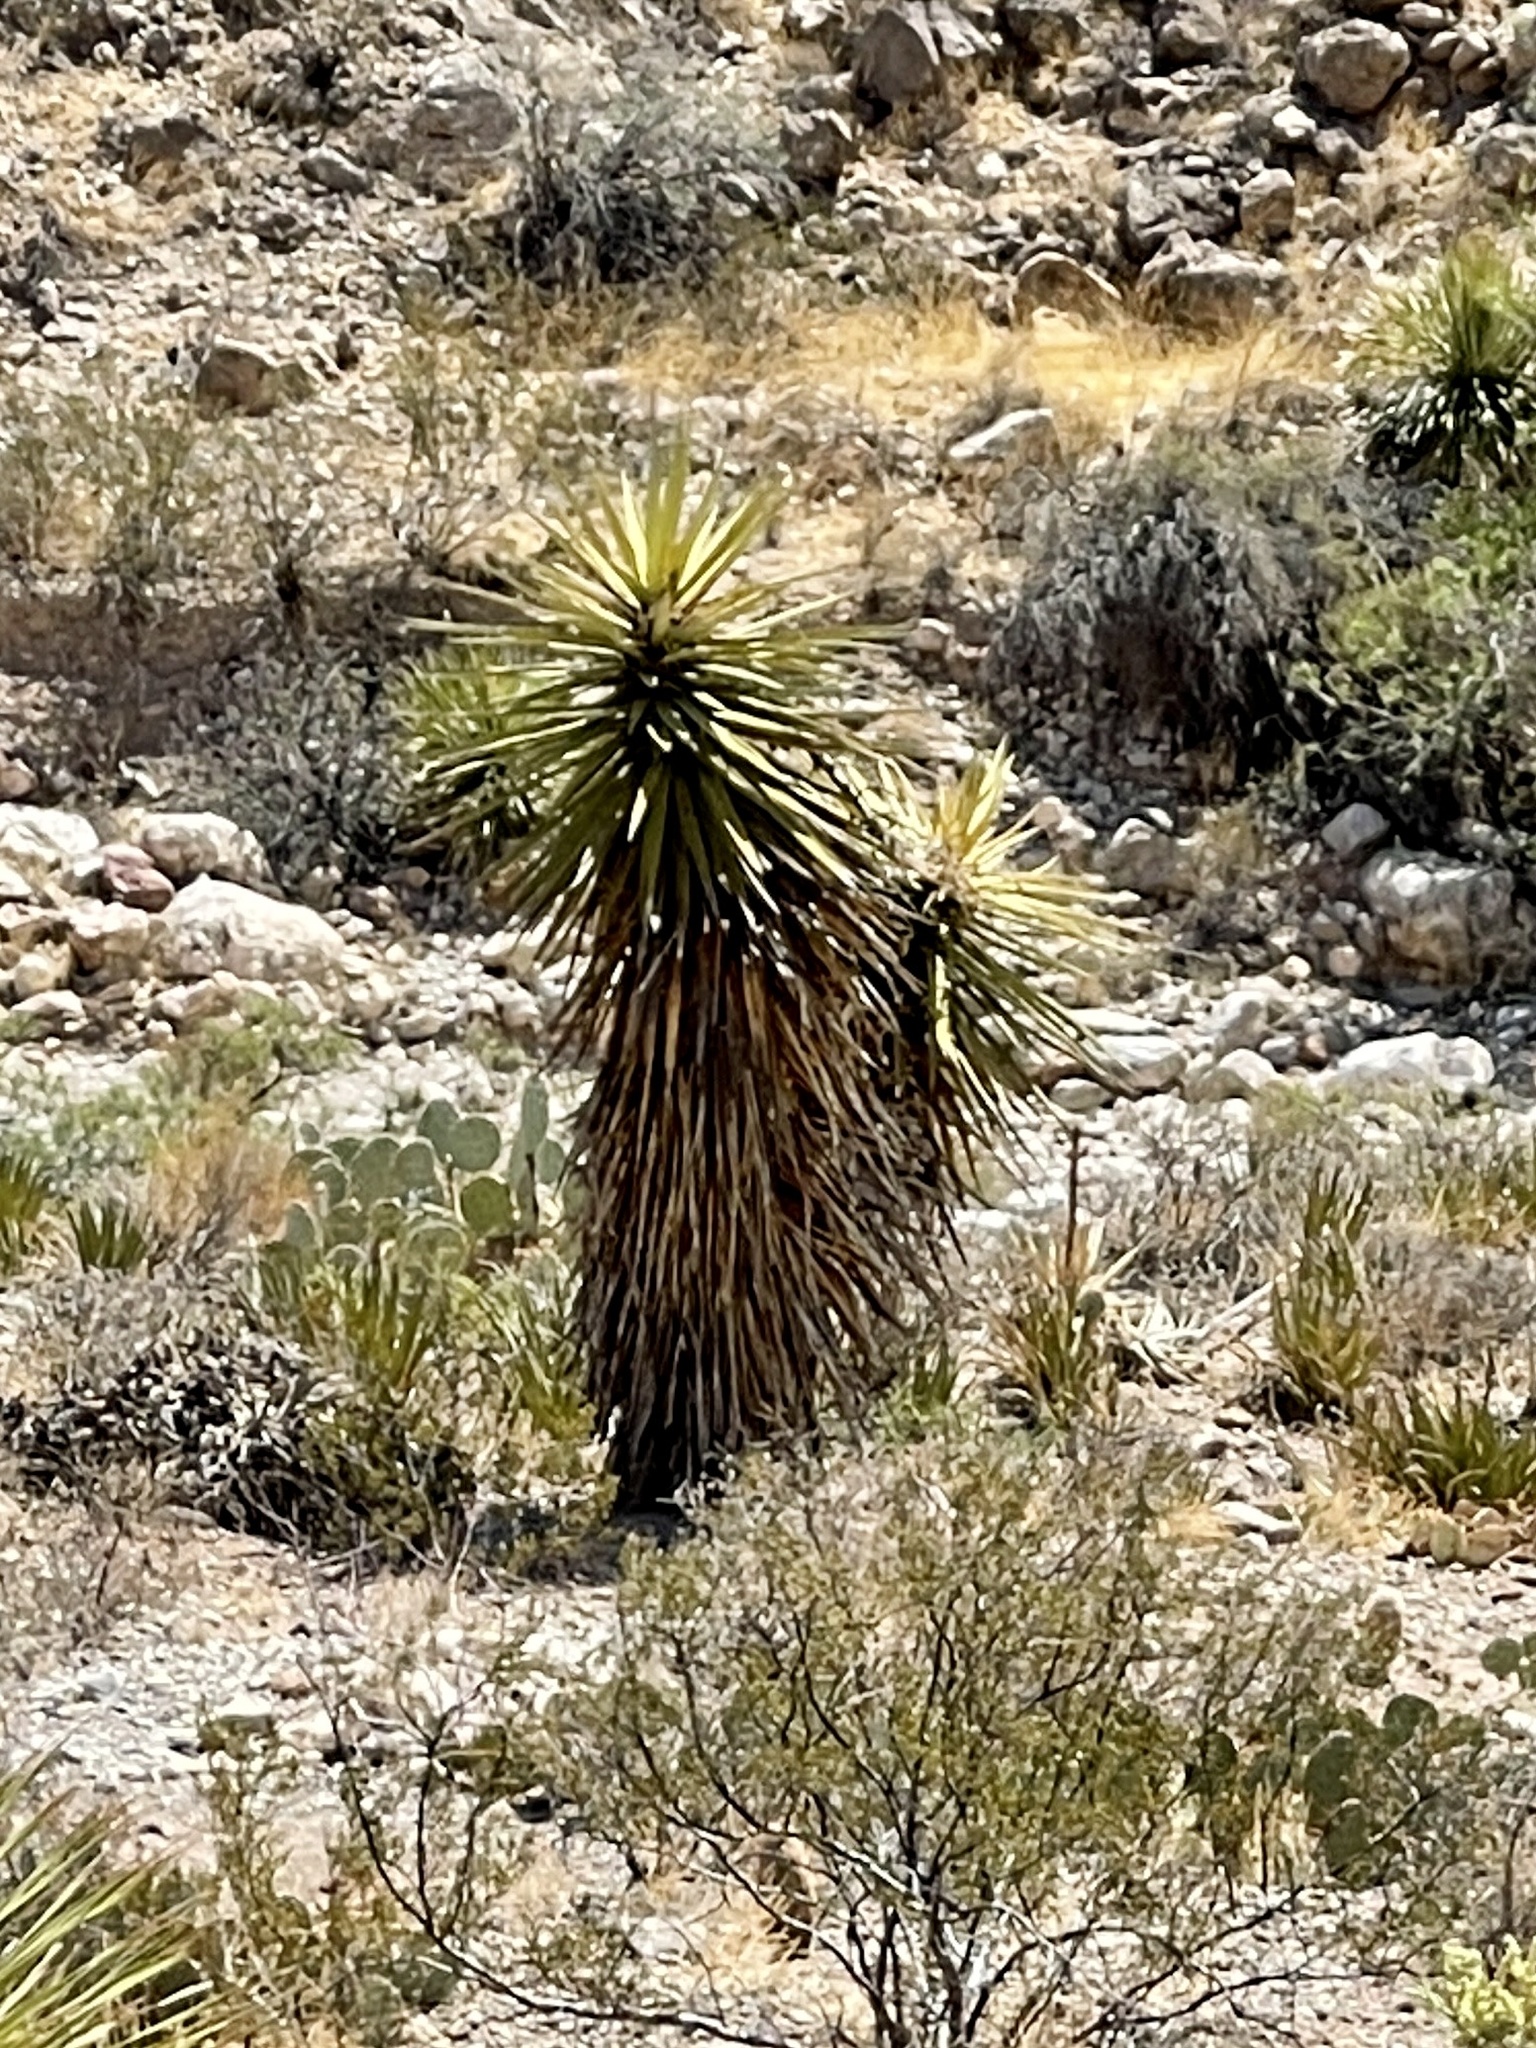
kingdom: Plantae
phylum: Tracheophyta
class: Liliopsida
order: Asparagales
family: Asparagaceae
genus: Yucca
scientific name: Yucca treculiana
